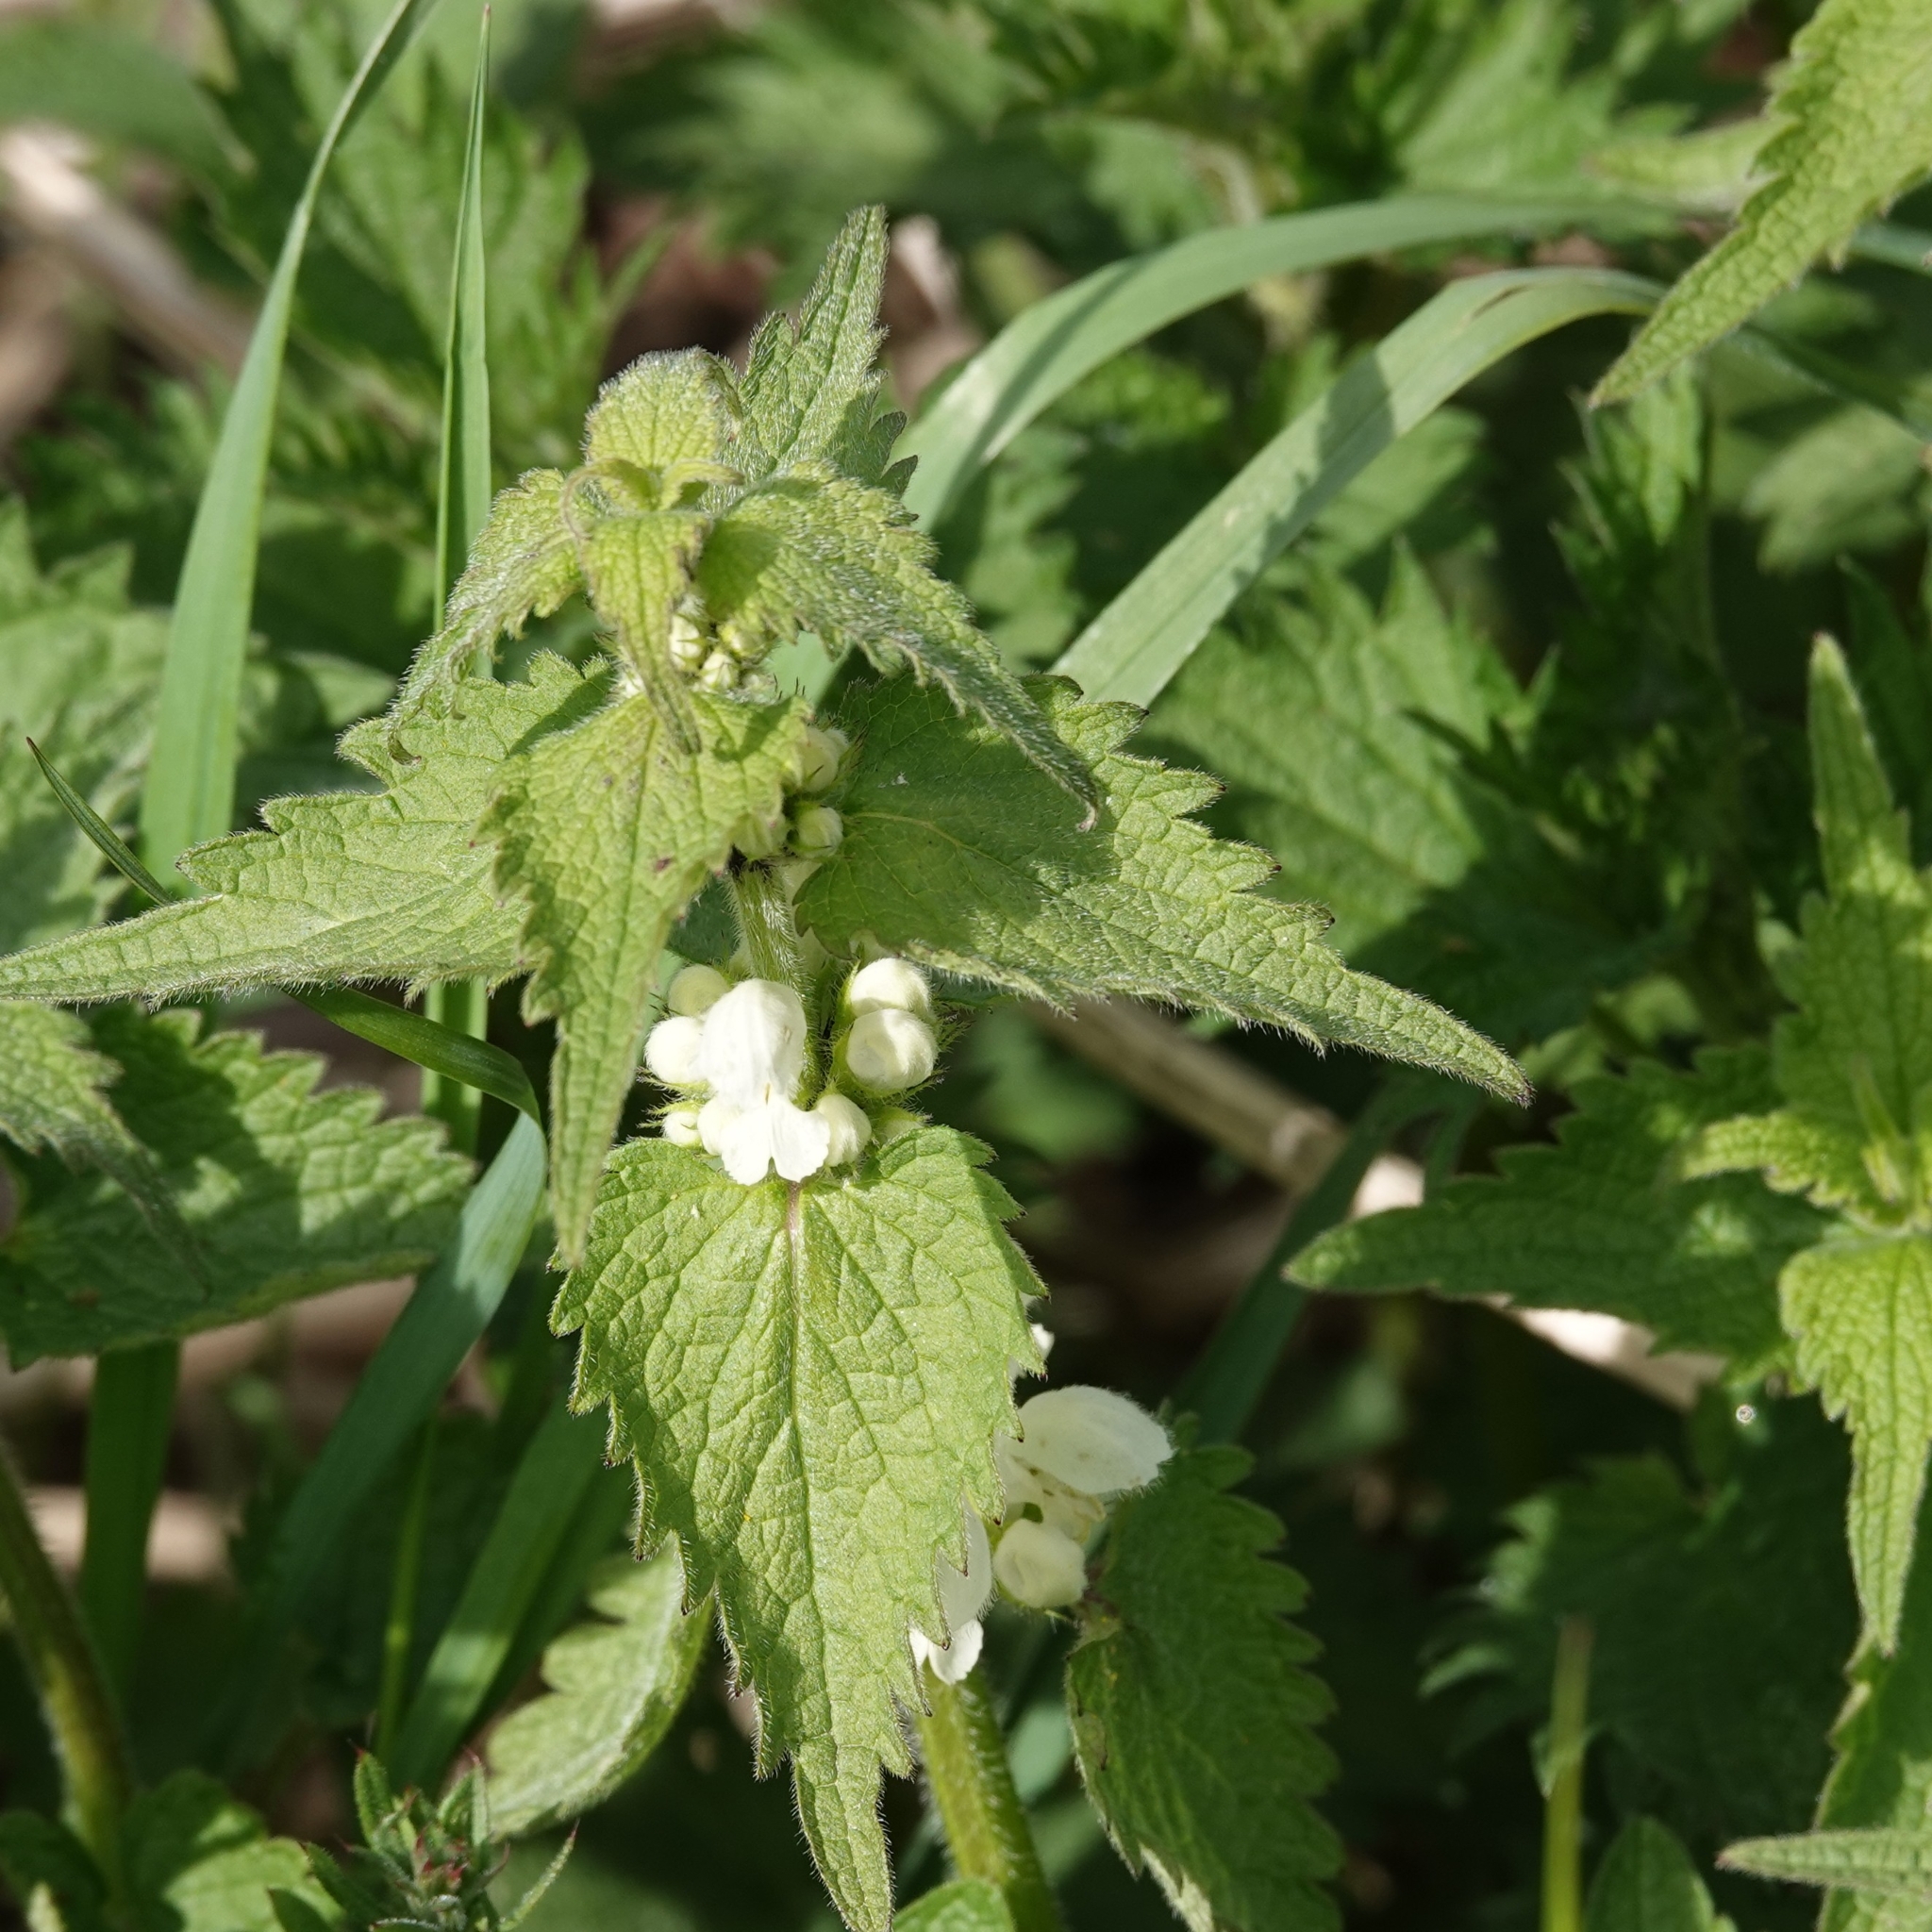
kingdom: Plantae
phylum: Tracheophyta
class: Magnoliopsida
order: Lamiales
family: Lamiaceae
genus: Lamium
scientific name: Lamium album
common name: White dead-nettle
